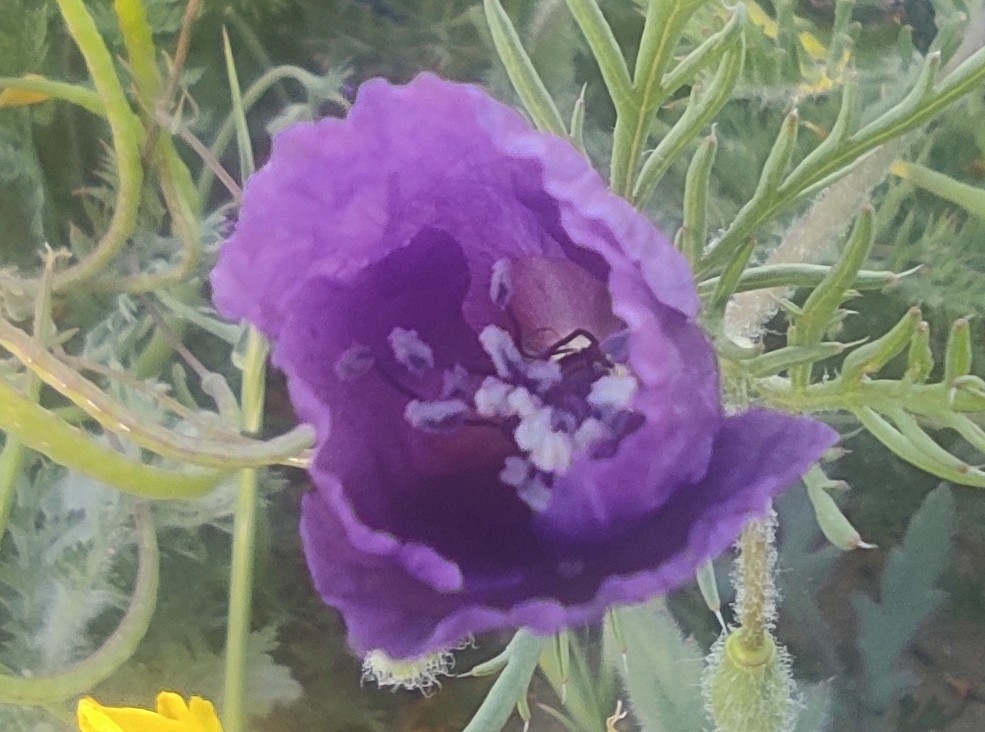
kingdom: Plantae
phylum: Tracheophyta
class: Magnoliopsida
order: Ranunculales
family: Papaveraceae
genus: Roemeria
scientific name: Roemeria hybrida
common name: Violet horned-poppy
